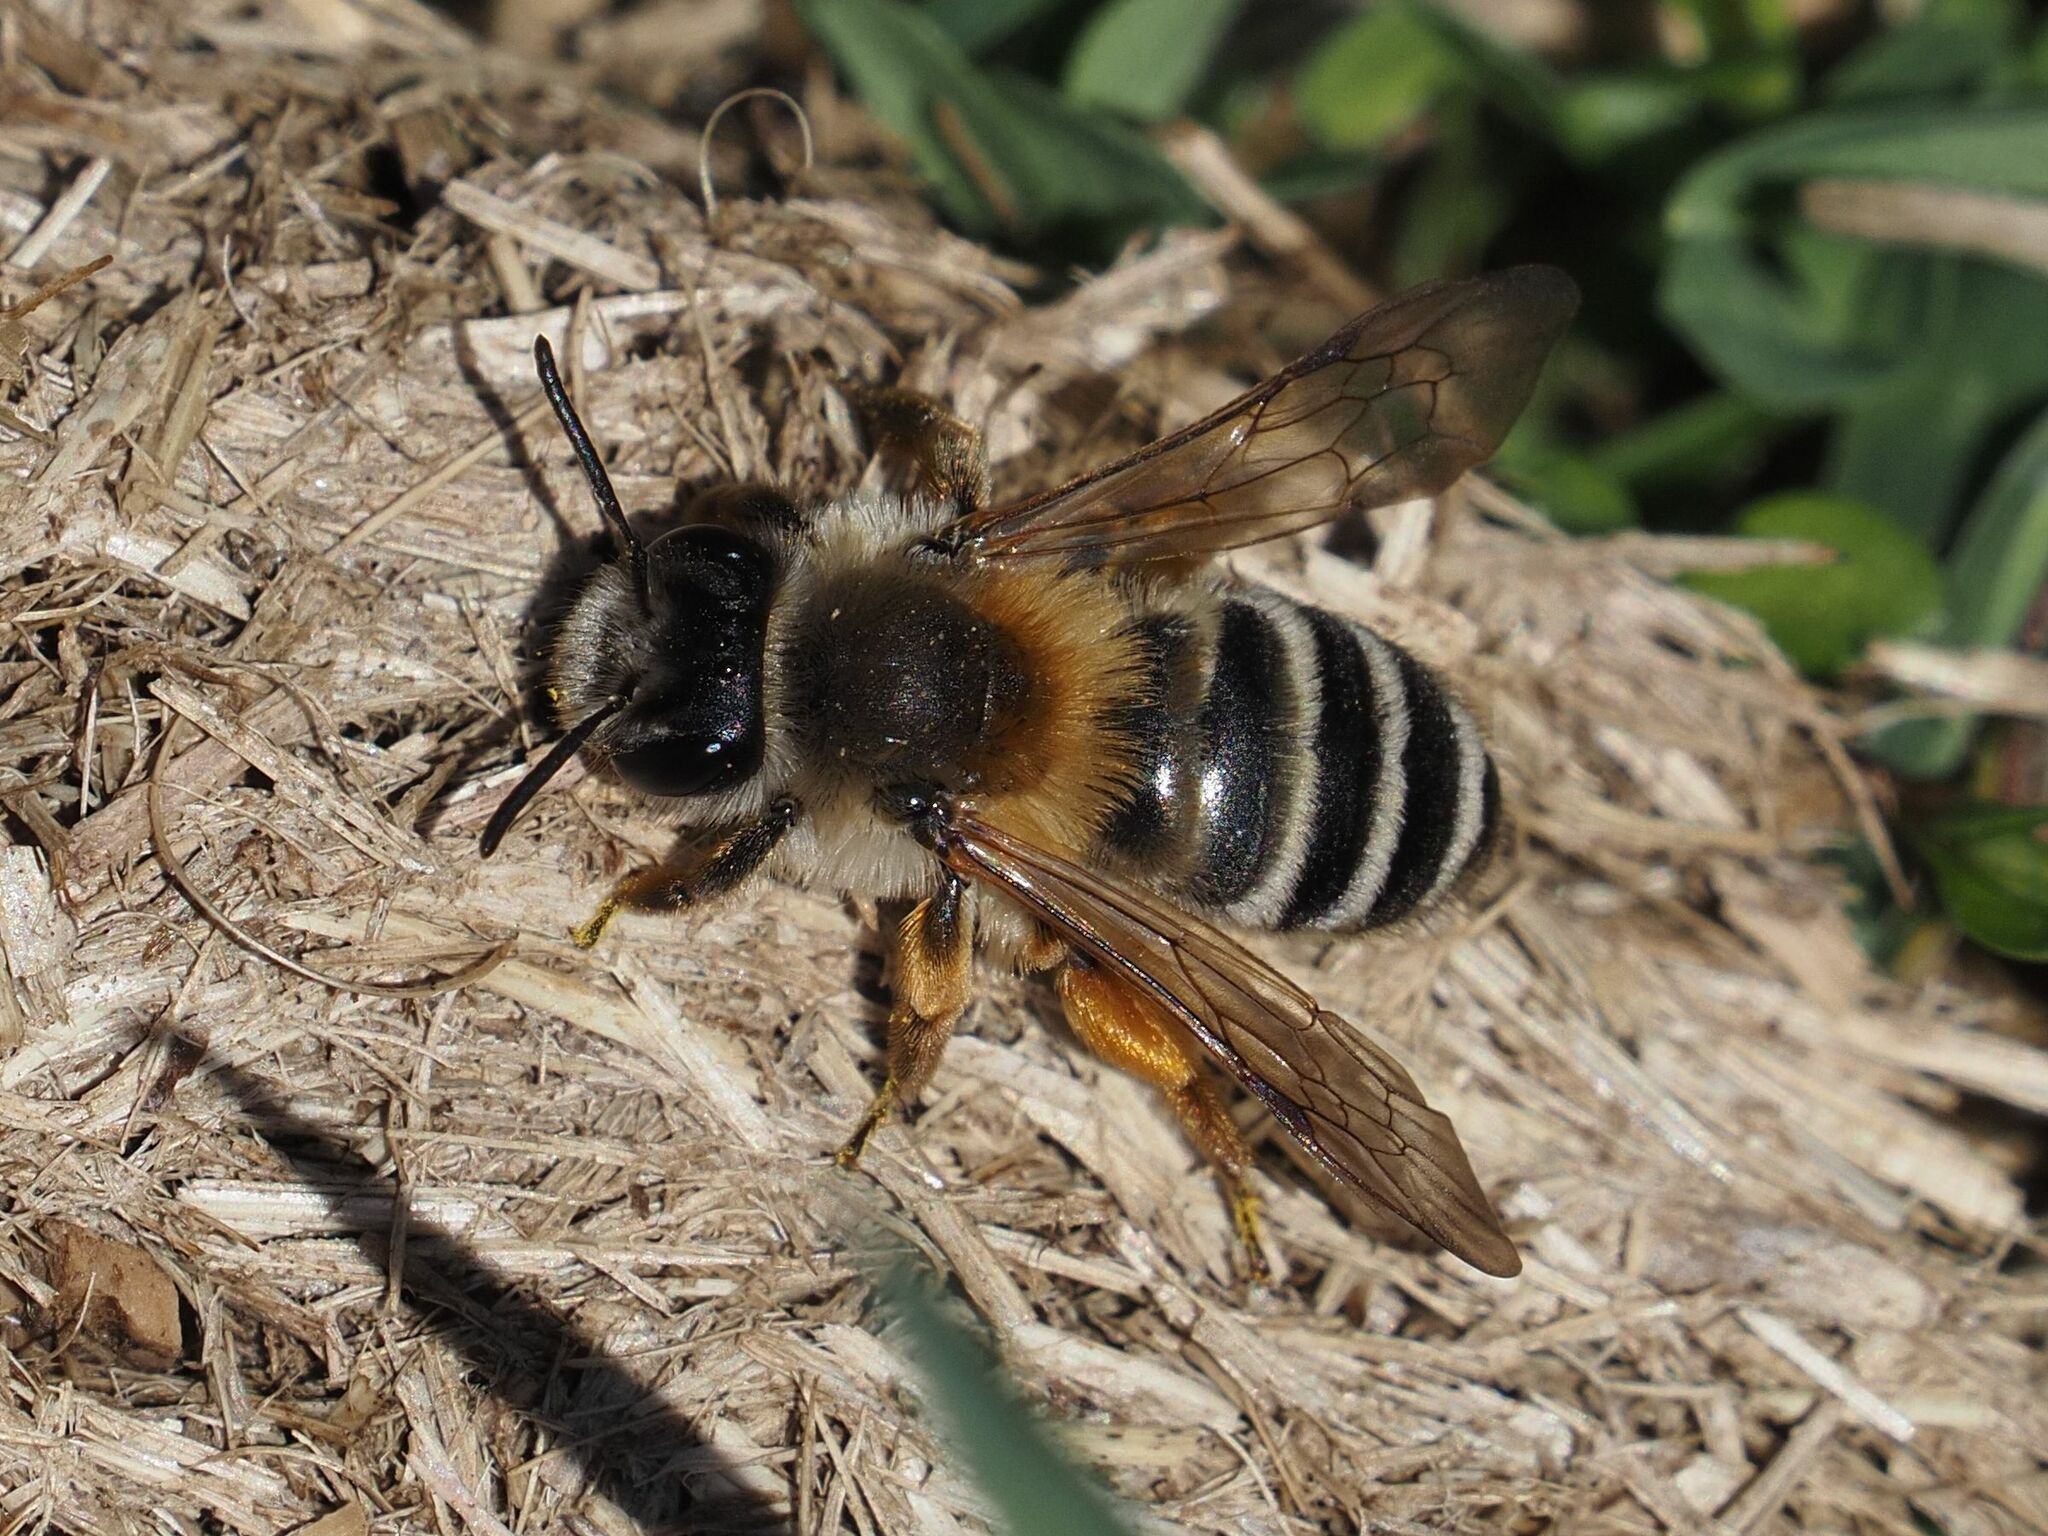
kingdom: Animalia
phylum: Arthropoda
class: Insecta
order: Hymenoptera
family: Andrenidae
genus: Andrena
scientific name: Andrena gravida
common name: White-bellied mining bee
